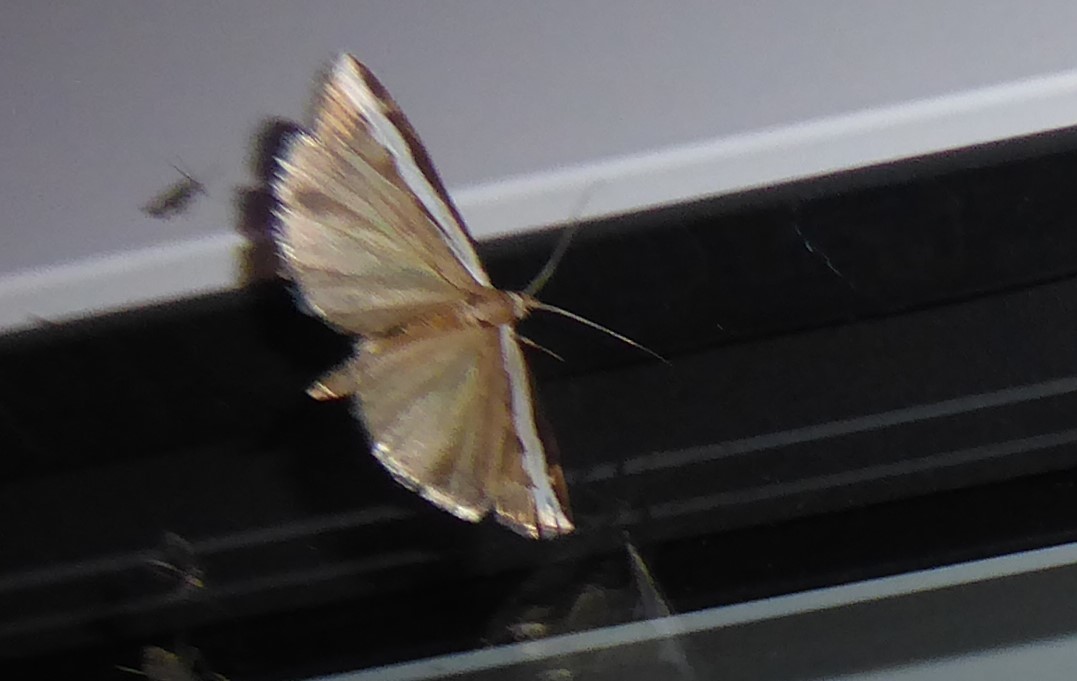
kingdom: Animalia
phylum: Arthropoda
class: Insecta
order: Lepidoptera
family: Crambidae
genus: Orocrambus
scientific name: Orocrambus flexuosellus
